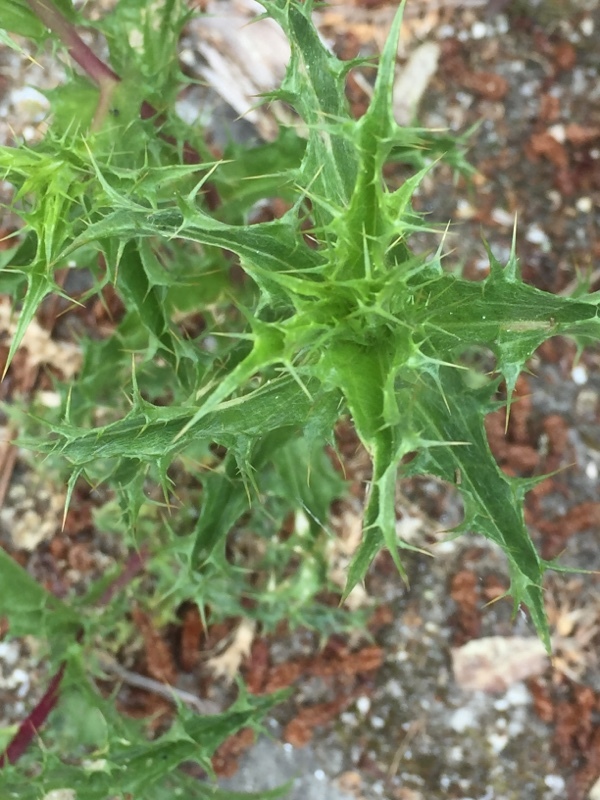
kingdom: Plantae
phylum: Tracheophyta
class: Magnoliopsida
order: Asterales
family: Asteraceae
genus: Carlina
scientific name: Carlina hispanica
